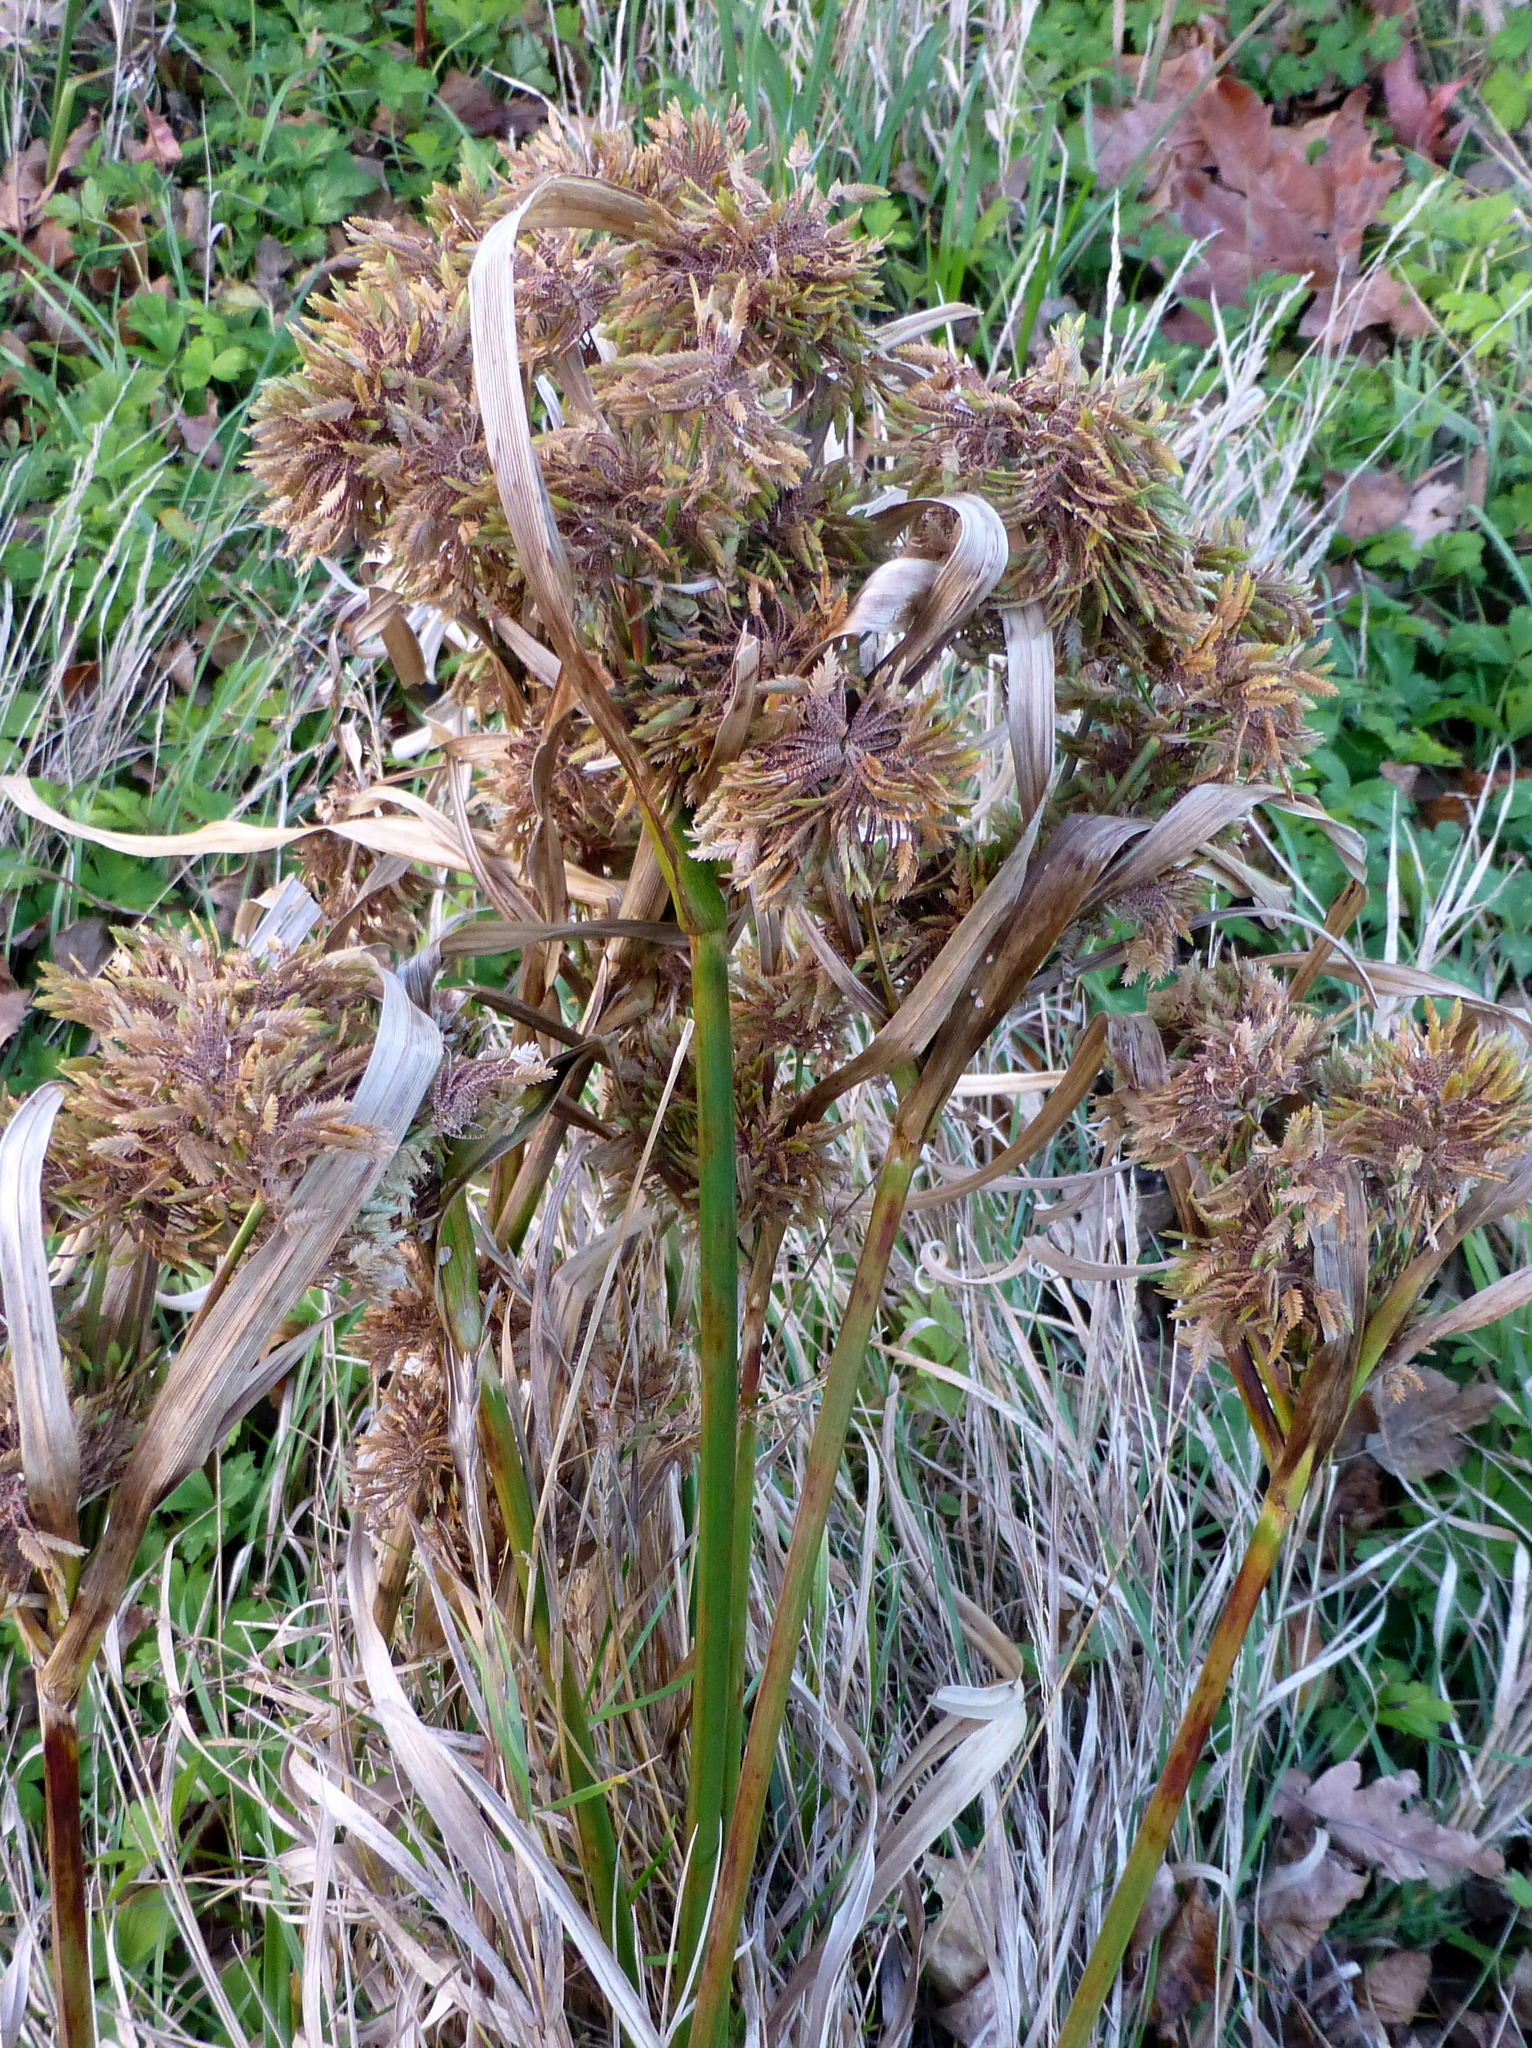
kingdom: Plantae
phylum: Tracheophyta
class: Liliopsida
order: Poales
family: Cyperaceae
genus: Cyperus
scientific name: Cyperus eragrostis
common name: Tall flatsedge
